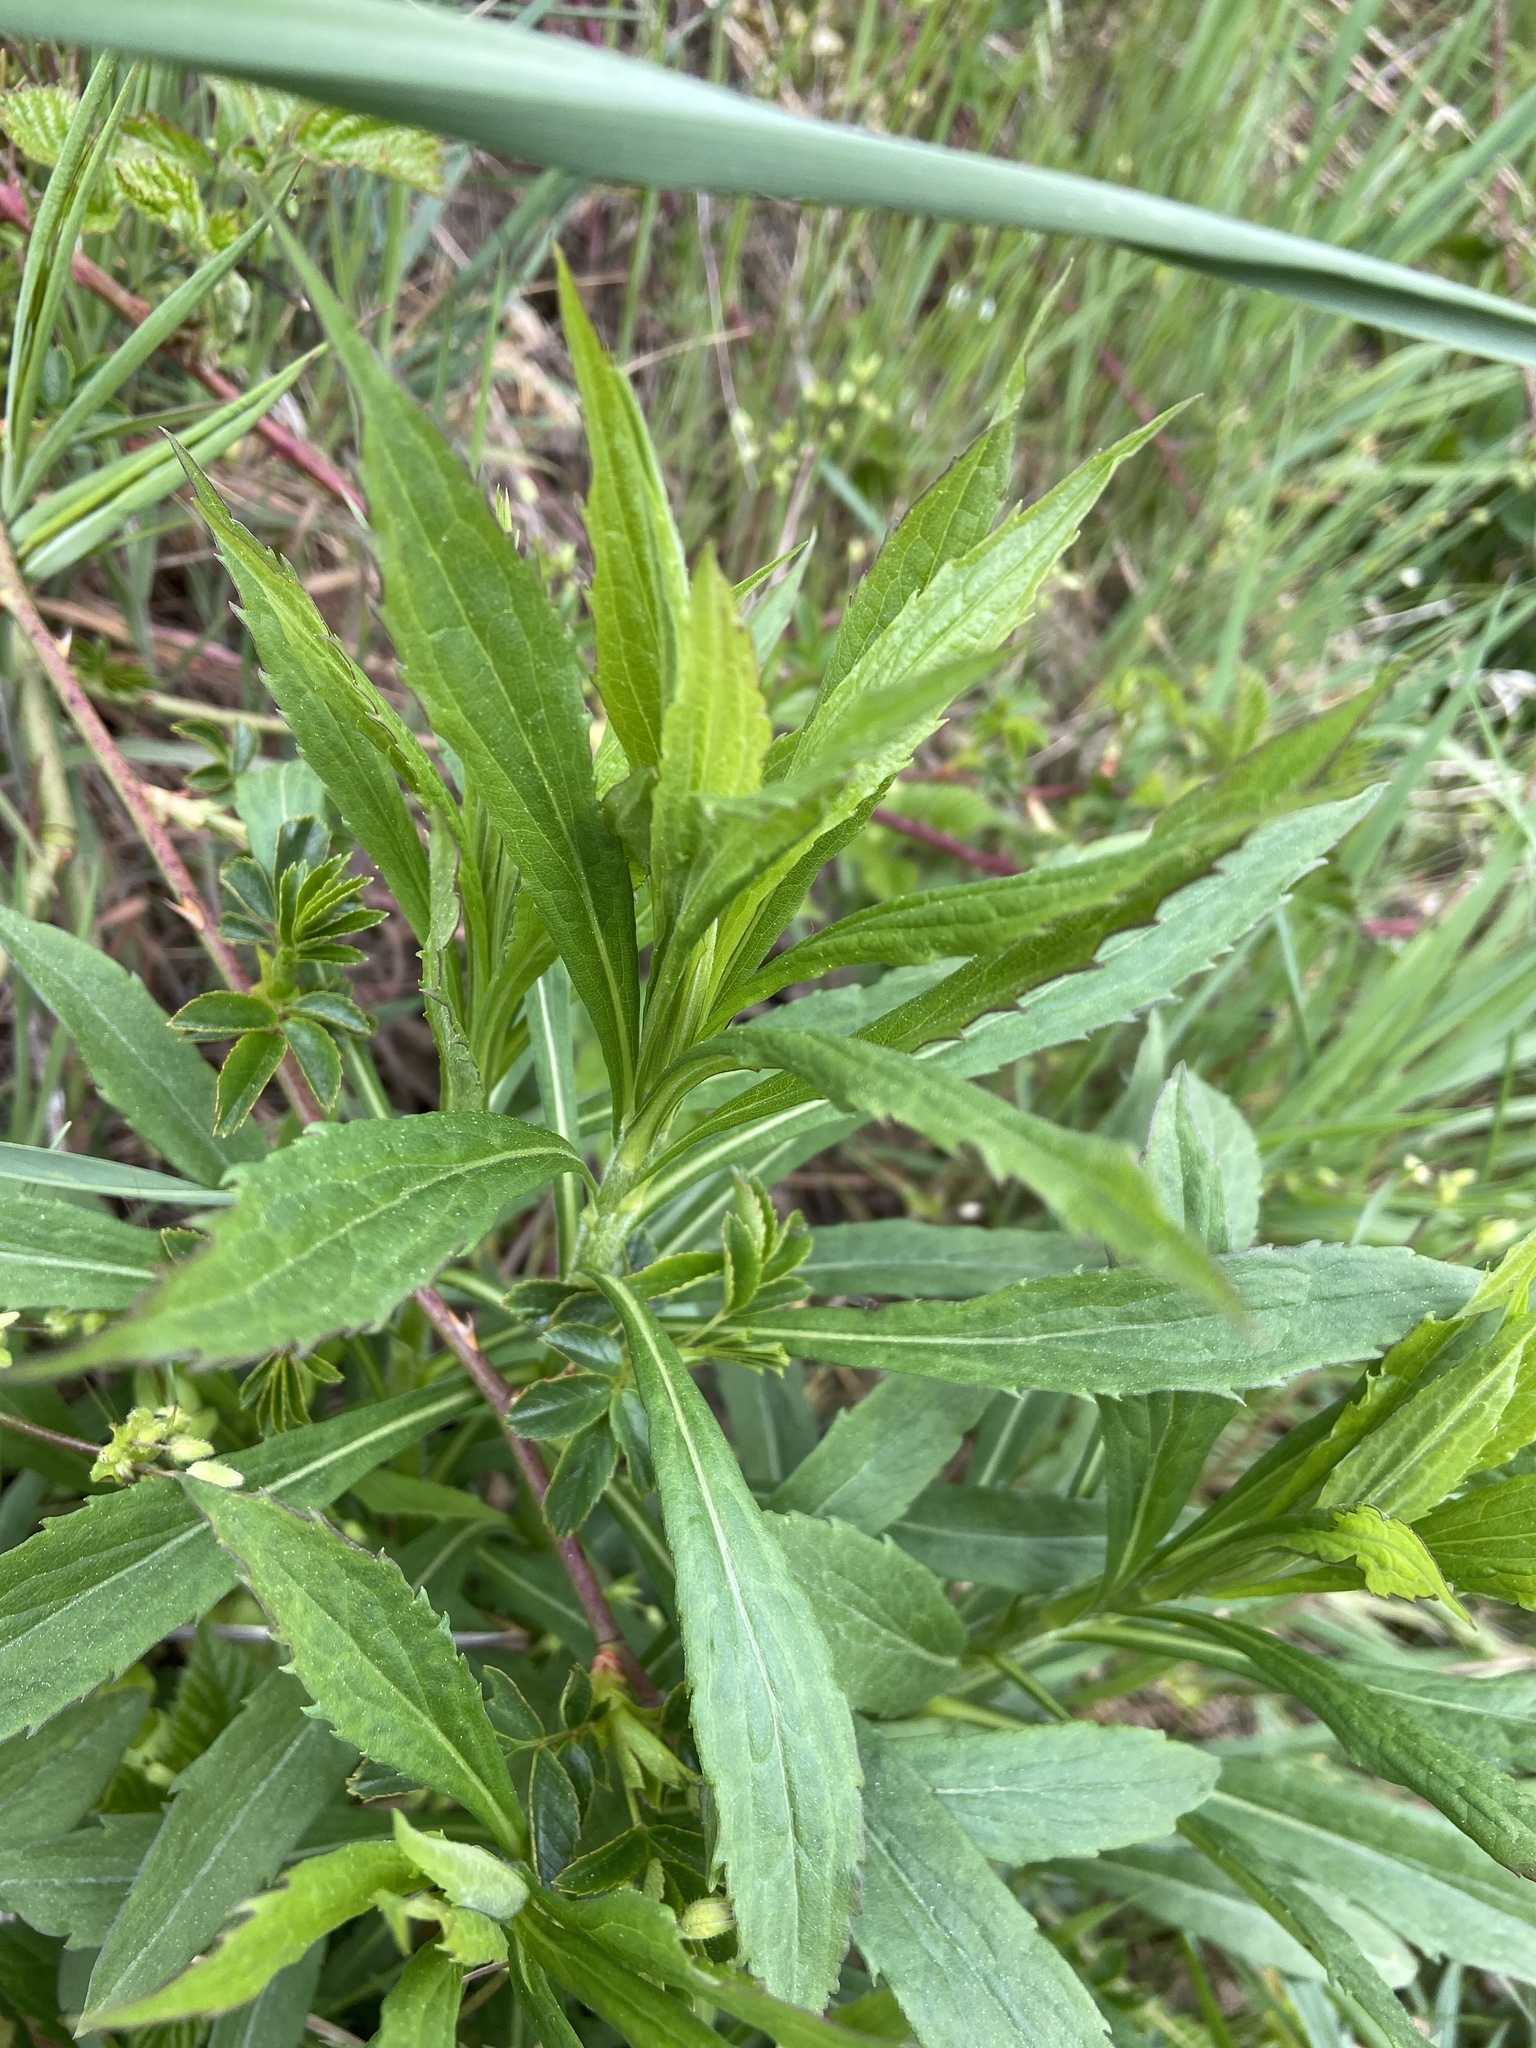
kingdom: Plantae
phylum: Tracheophyta
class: Magnoliopsida
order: Asterales
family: Asteraceae
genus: Solidago
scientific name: Solidago canadensis
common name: Canada goldenrod
